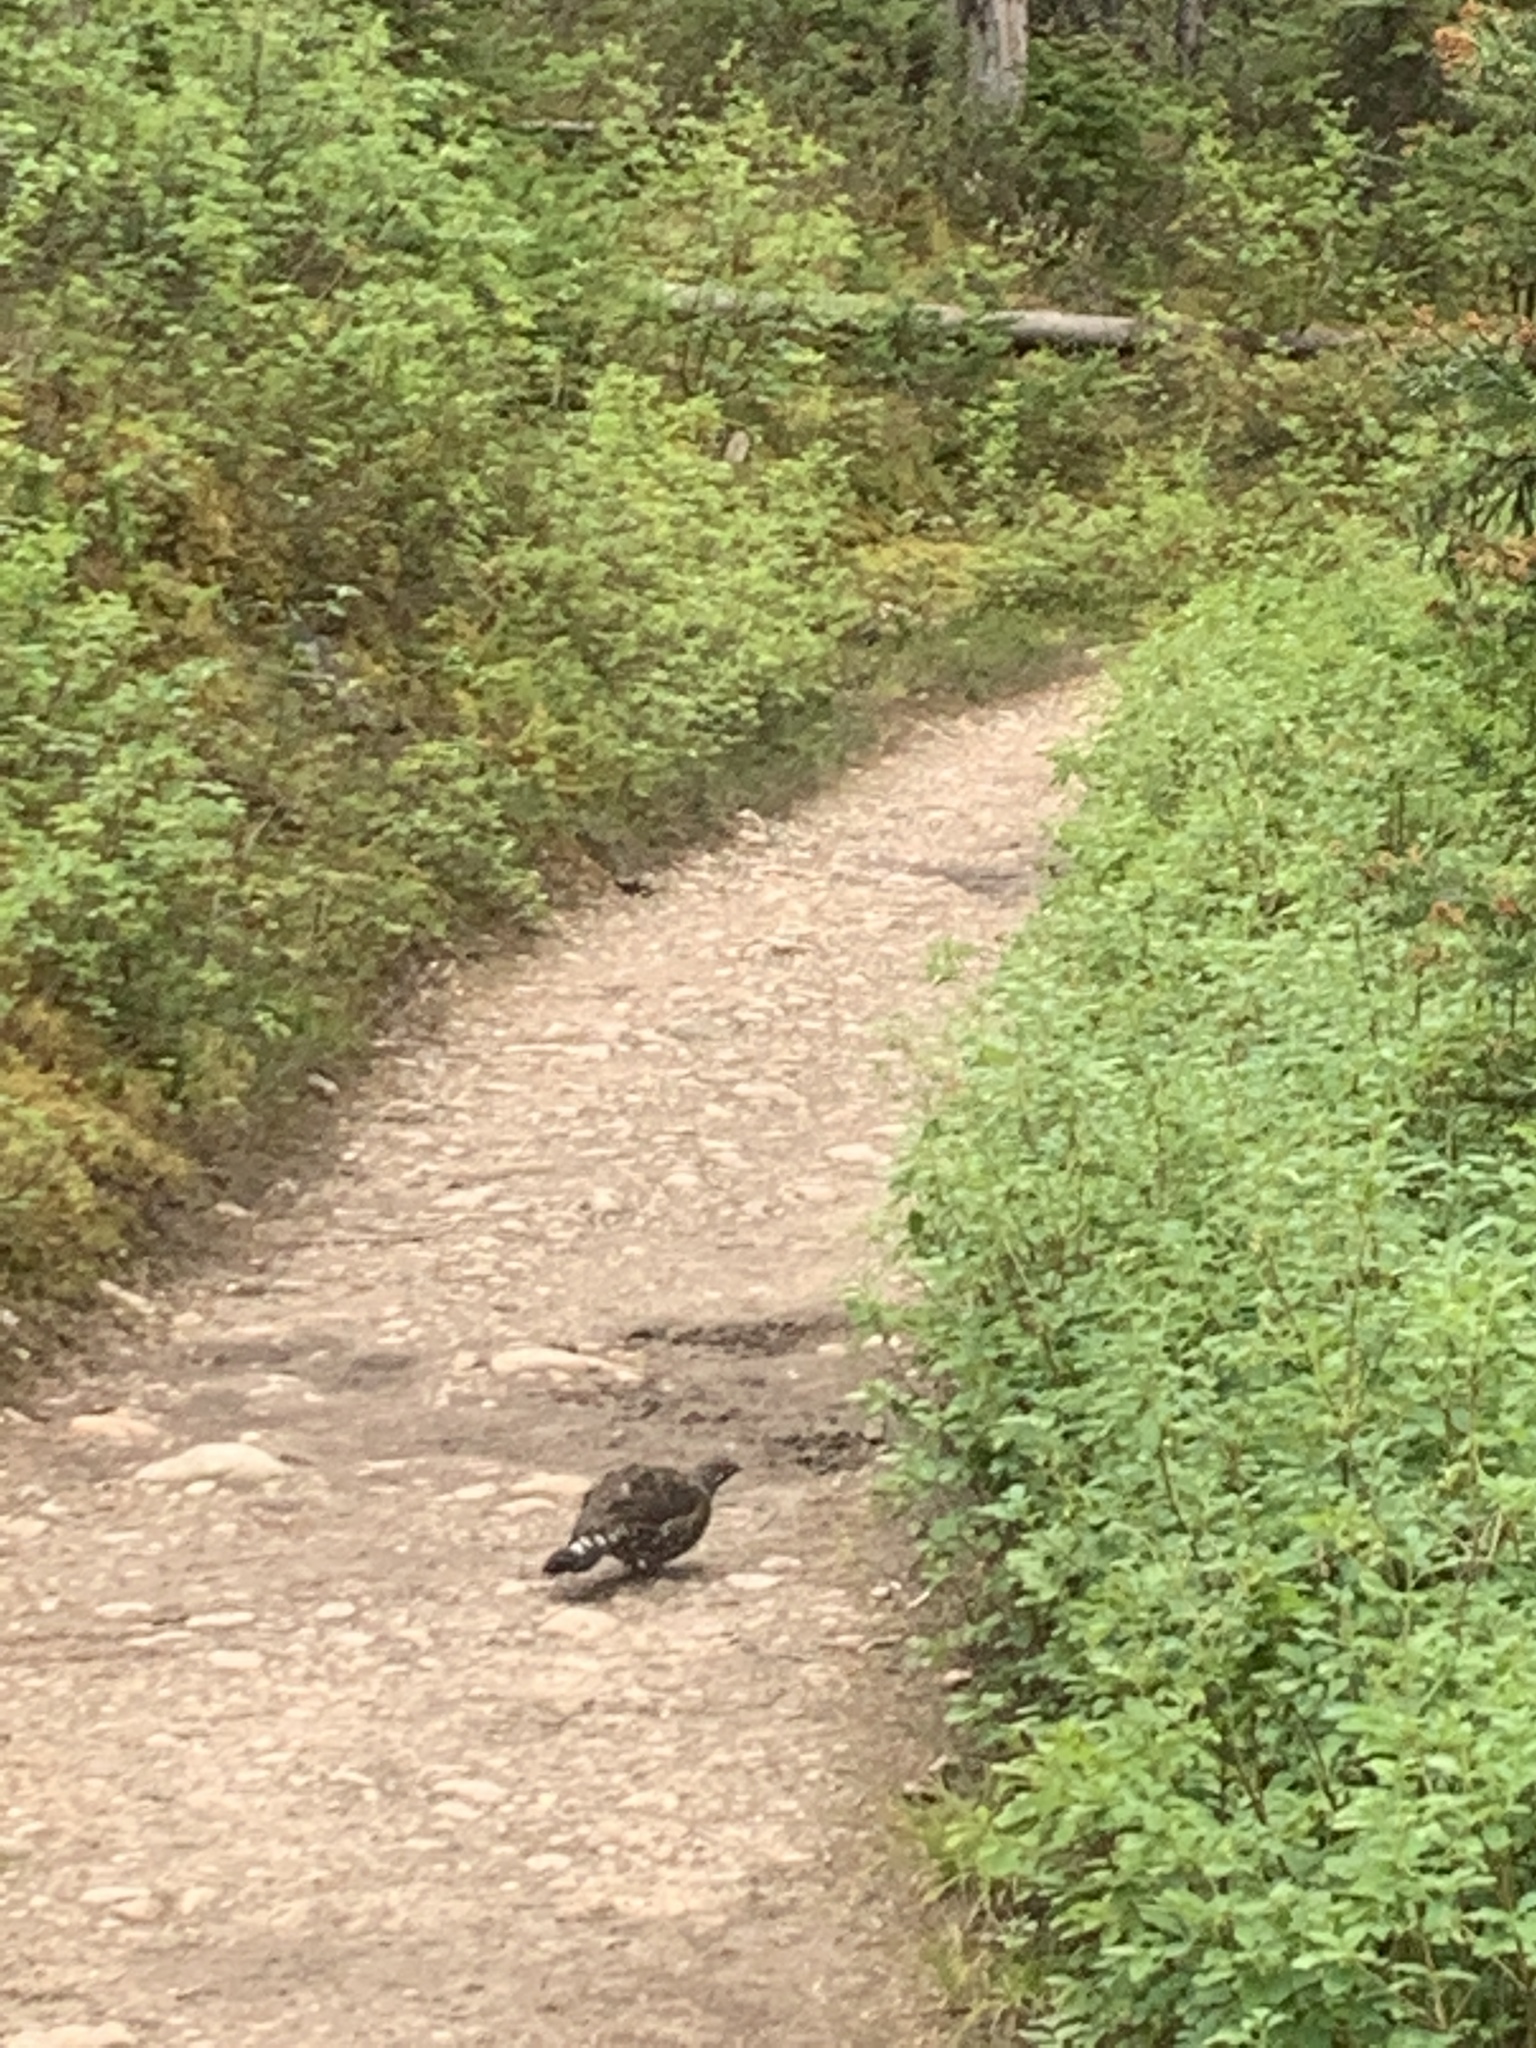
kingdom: Animalia
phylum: Chordata
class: Aves
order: Galliformes
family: Phasianidae
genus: Canachites
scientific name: Canachites canadensis
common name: Spruce grouse
